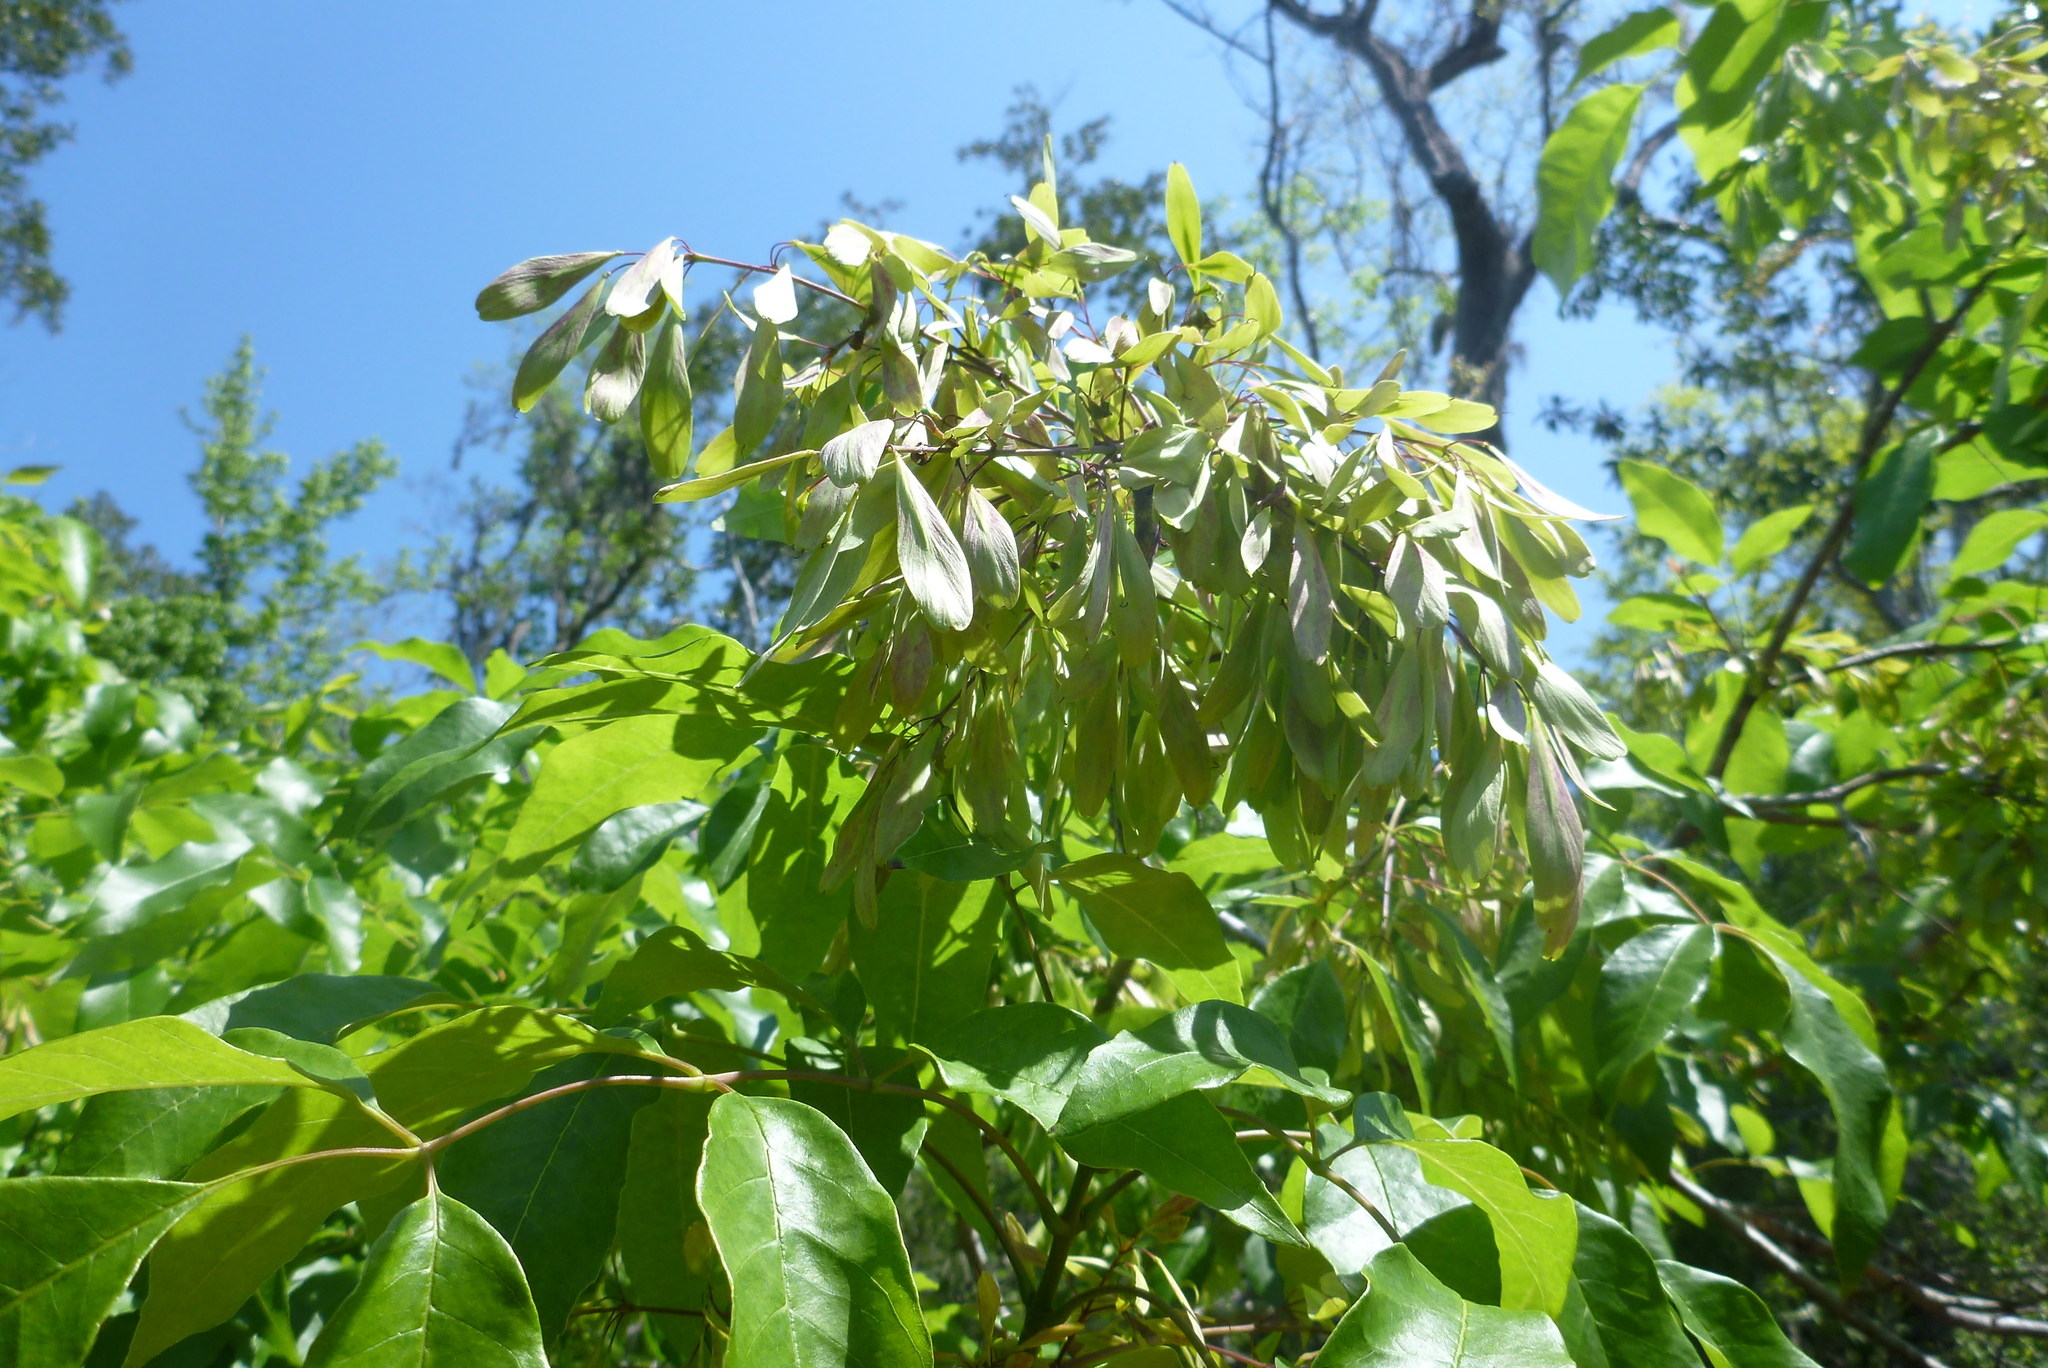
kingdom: Plantae
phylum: Tracheophyta
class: Magnoliopsida
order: Lamiales
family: Oleaceae
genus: Fraxinus
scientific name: Fraxinus profunda
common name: Pumpkin ash
